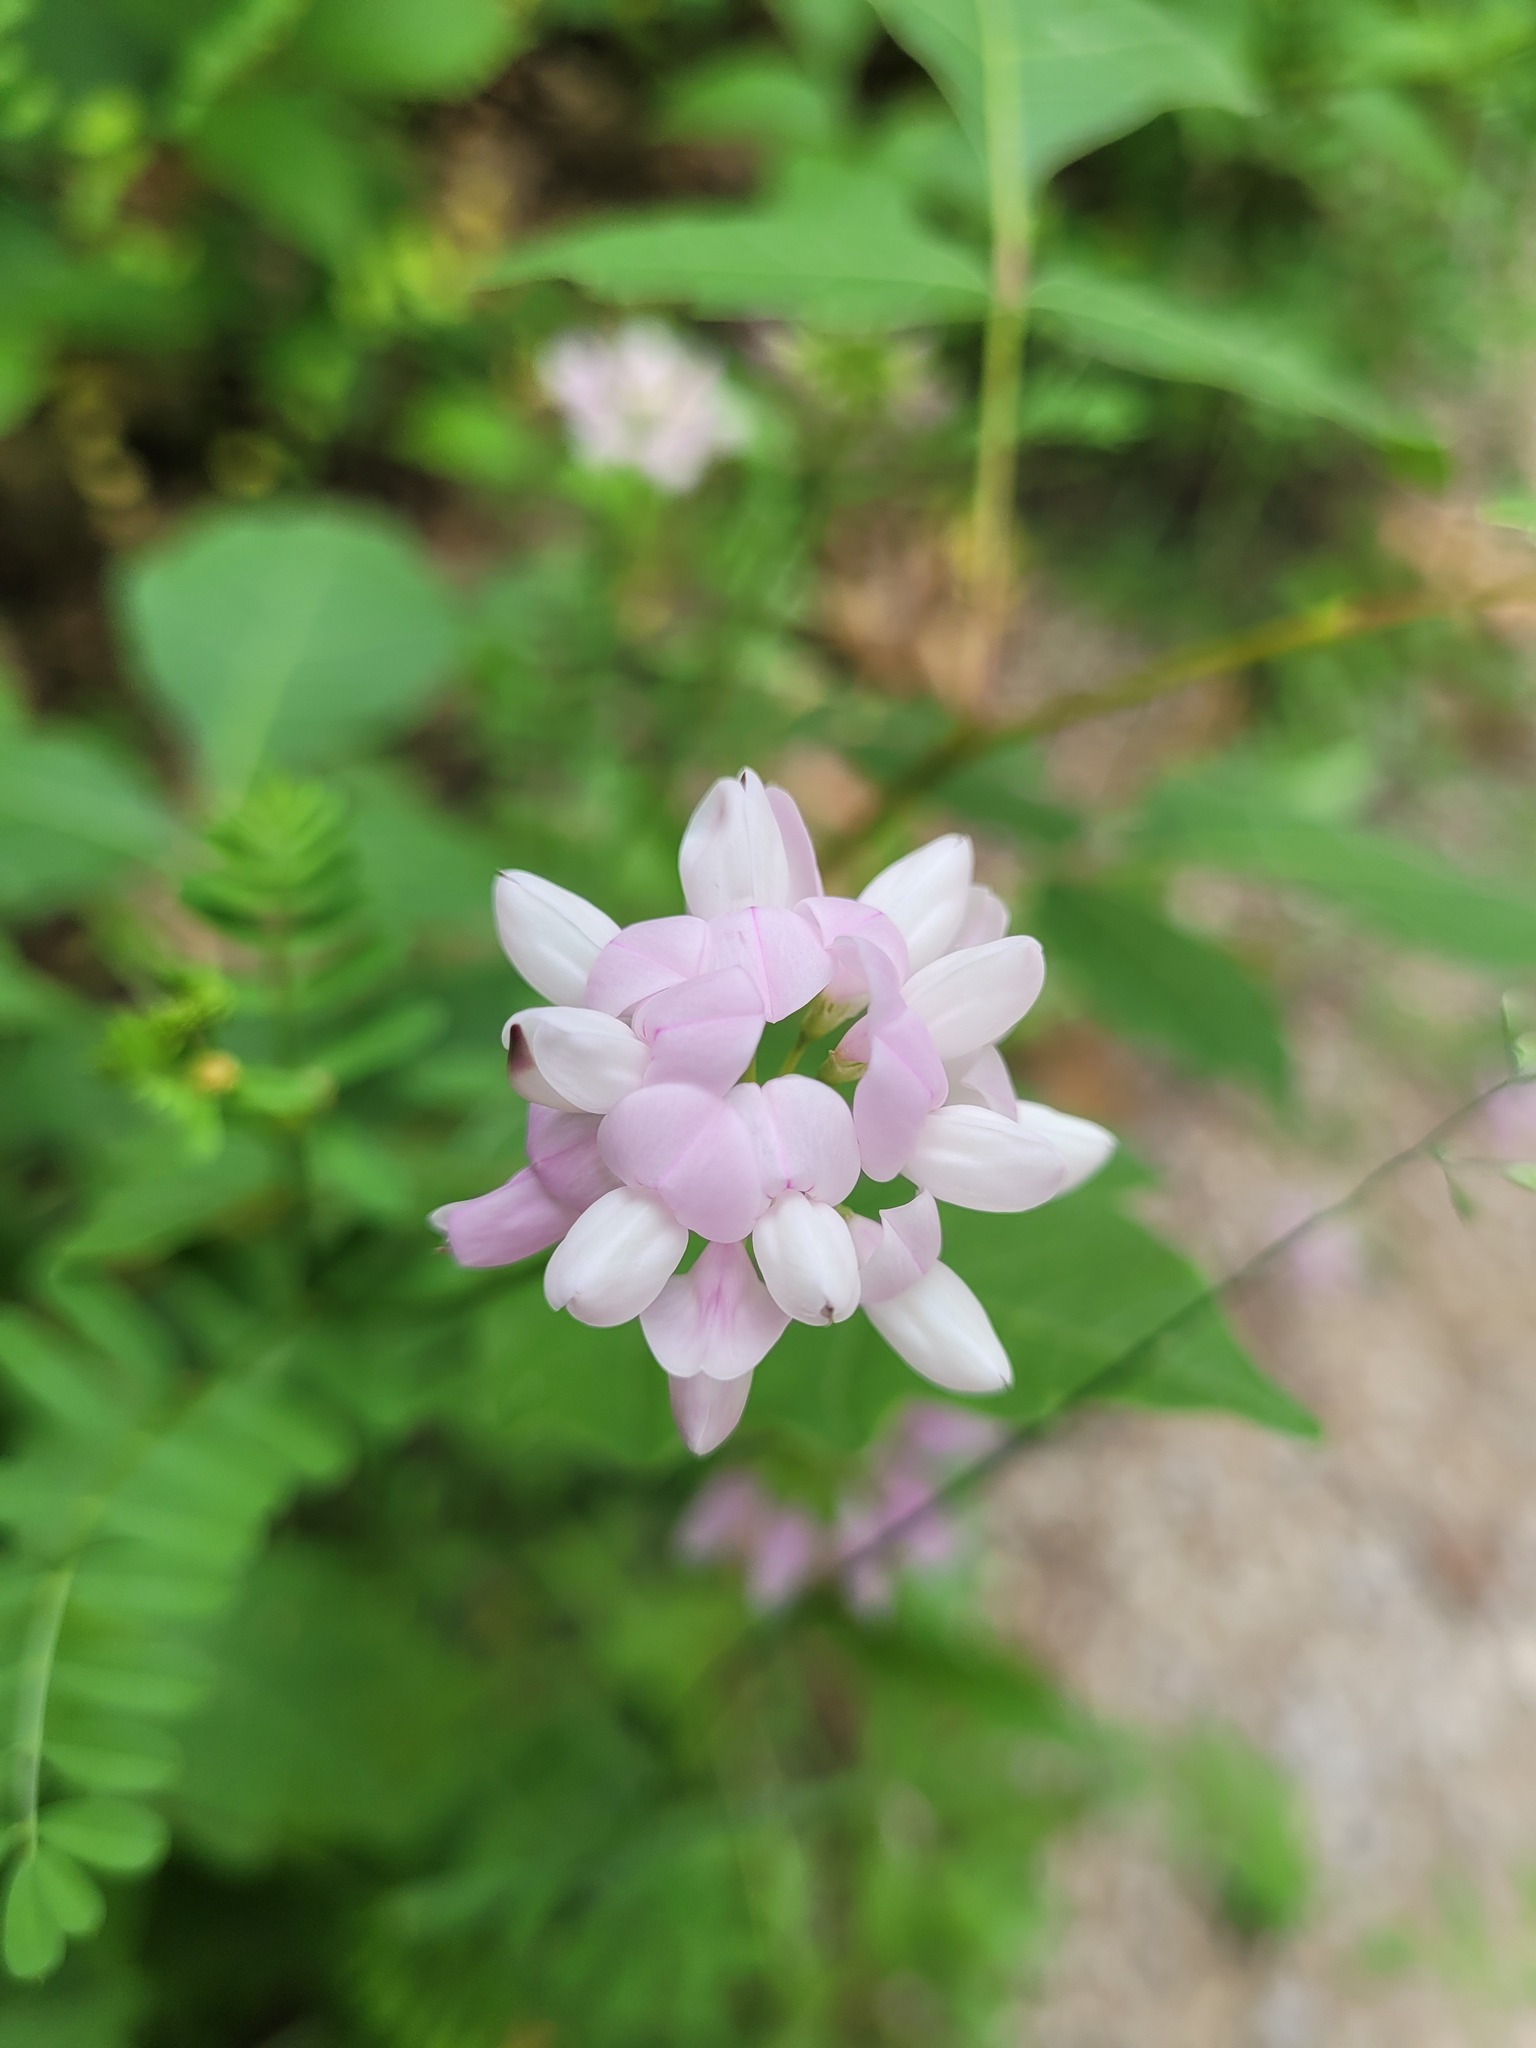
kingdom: Plantae
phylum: Tracheophyta
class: Magnoliopsida
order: Fabales
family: Fabaceae
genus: Coronilla
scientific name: Coronilla varia
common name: Crownvetch
